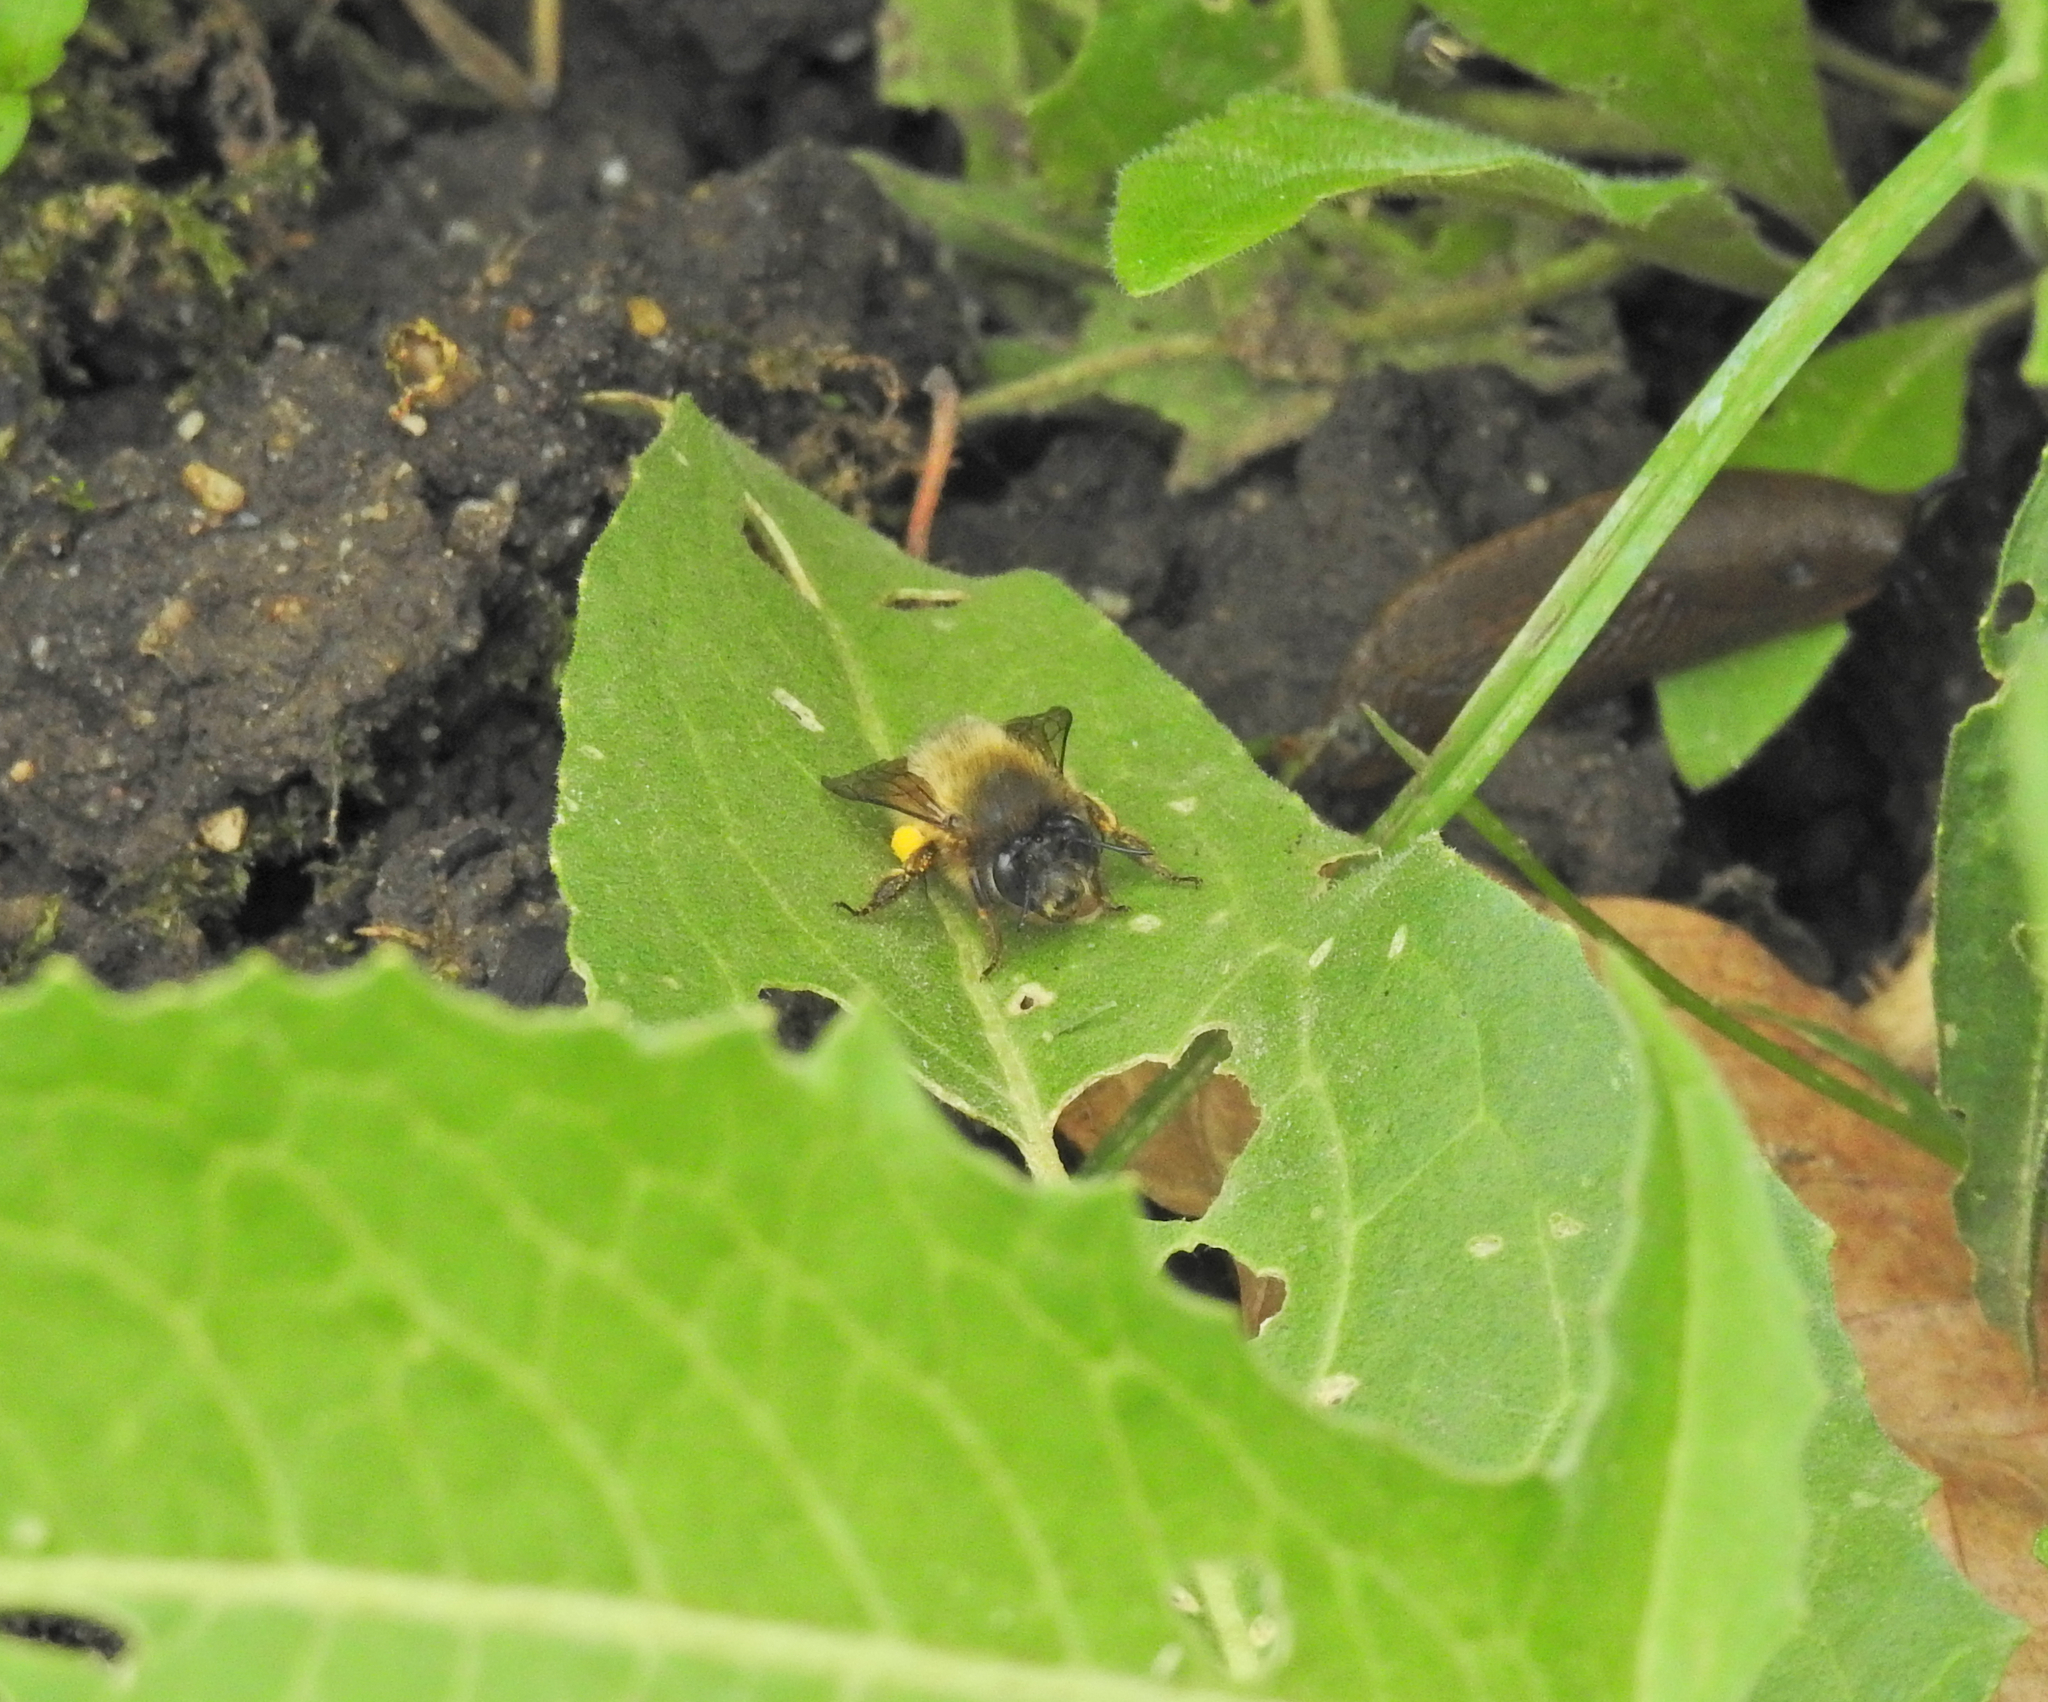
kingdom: Animalia
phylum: Arthropoda
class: Insecta
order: Hymenoptera
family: Apidae
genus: Anthophora
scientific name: Anthophora plumipes
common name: Hairy-footed flower bee
